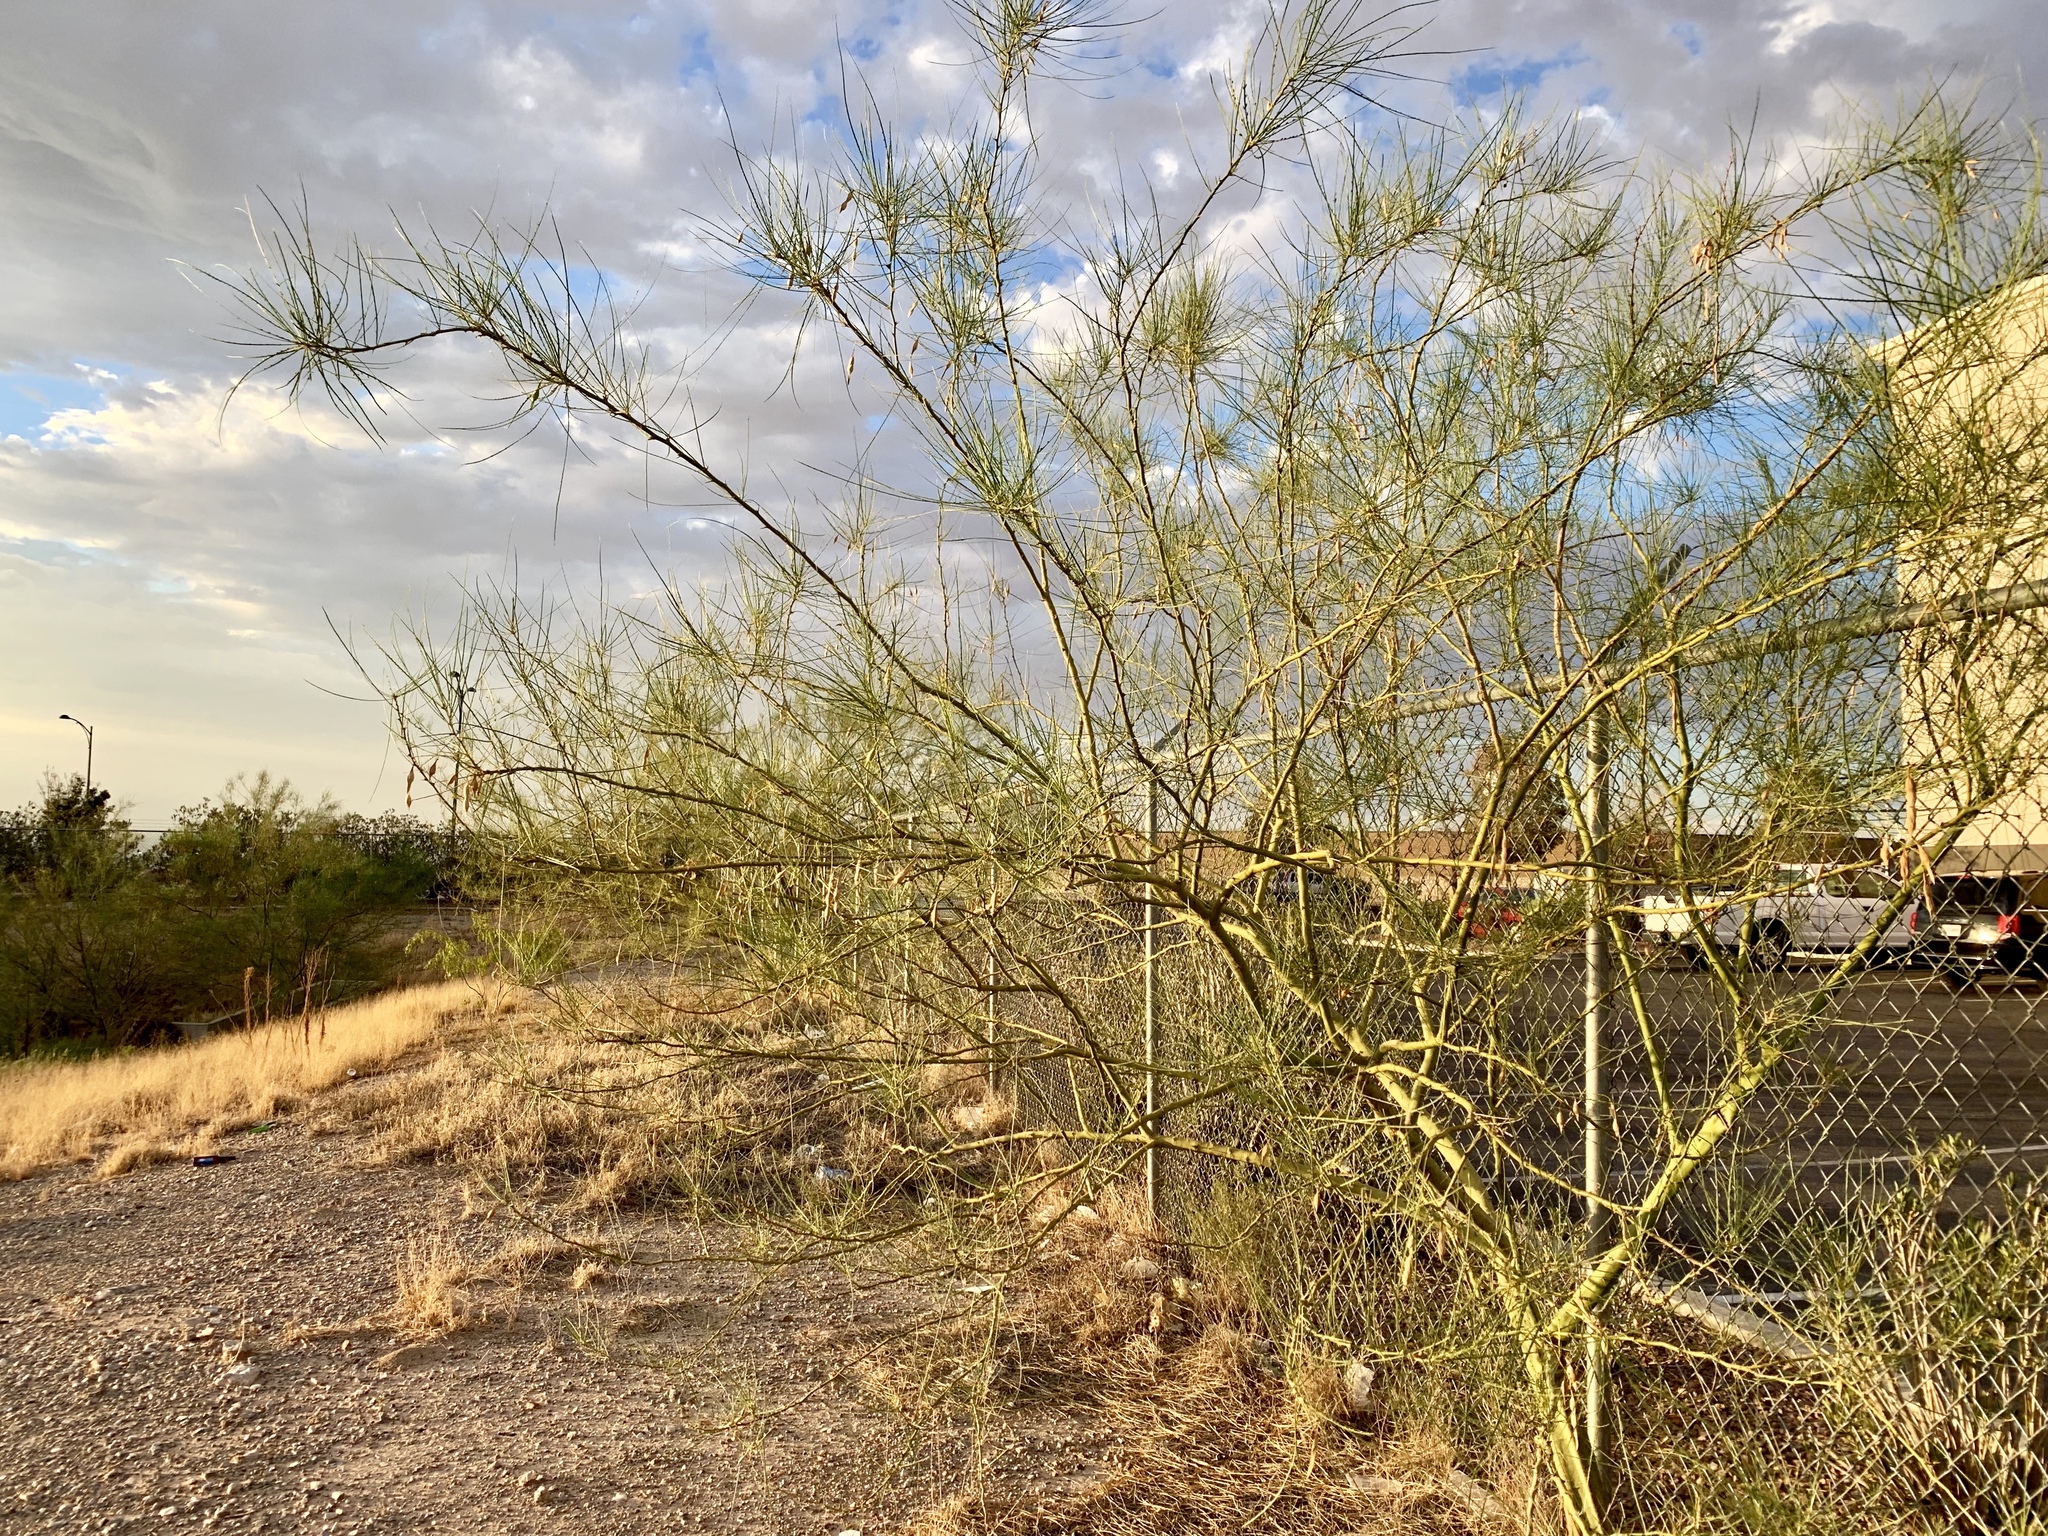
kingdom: Plantae
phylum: Tracheophyta
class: Magnoliopsida
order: Fabales
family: Fabaceae
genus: Parkinsonia
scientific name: Parkinsonia aculeata
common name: Jerusalem thorn
